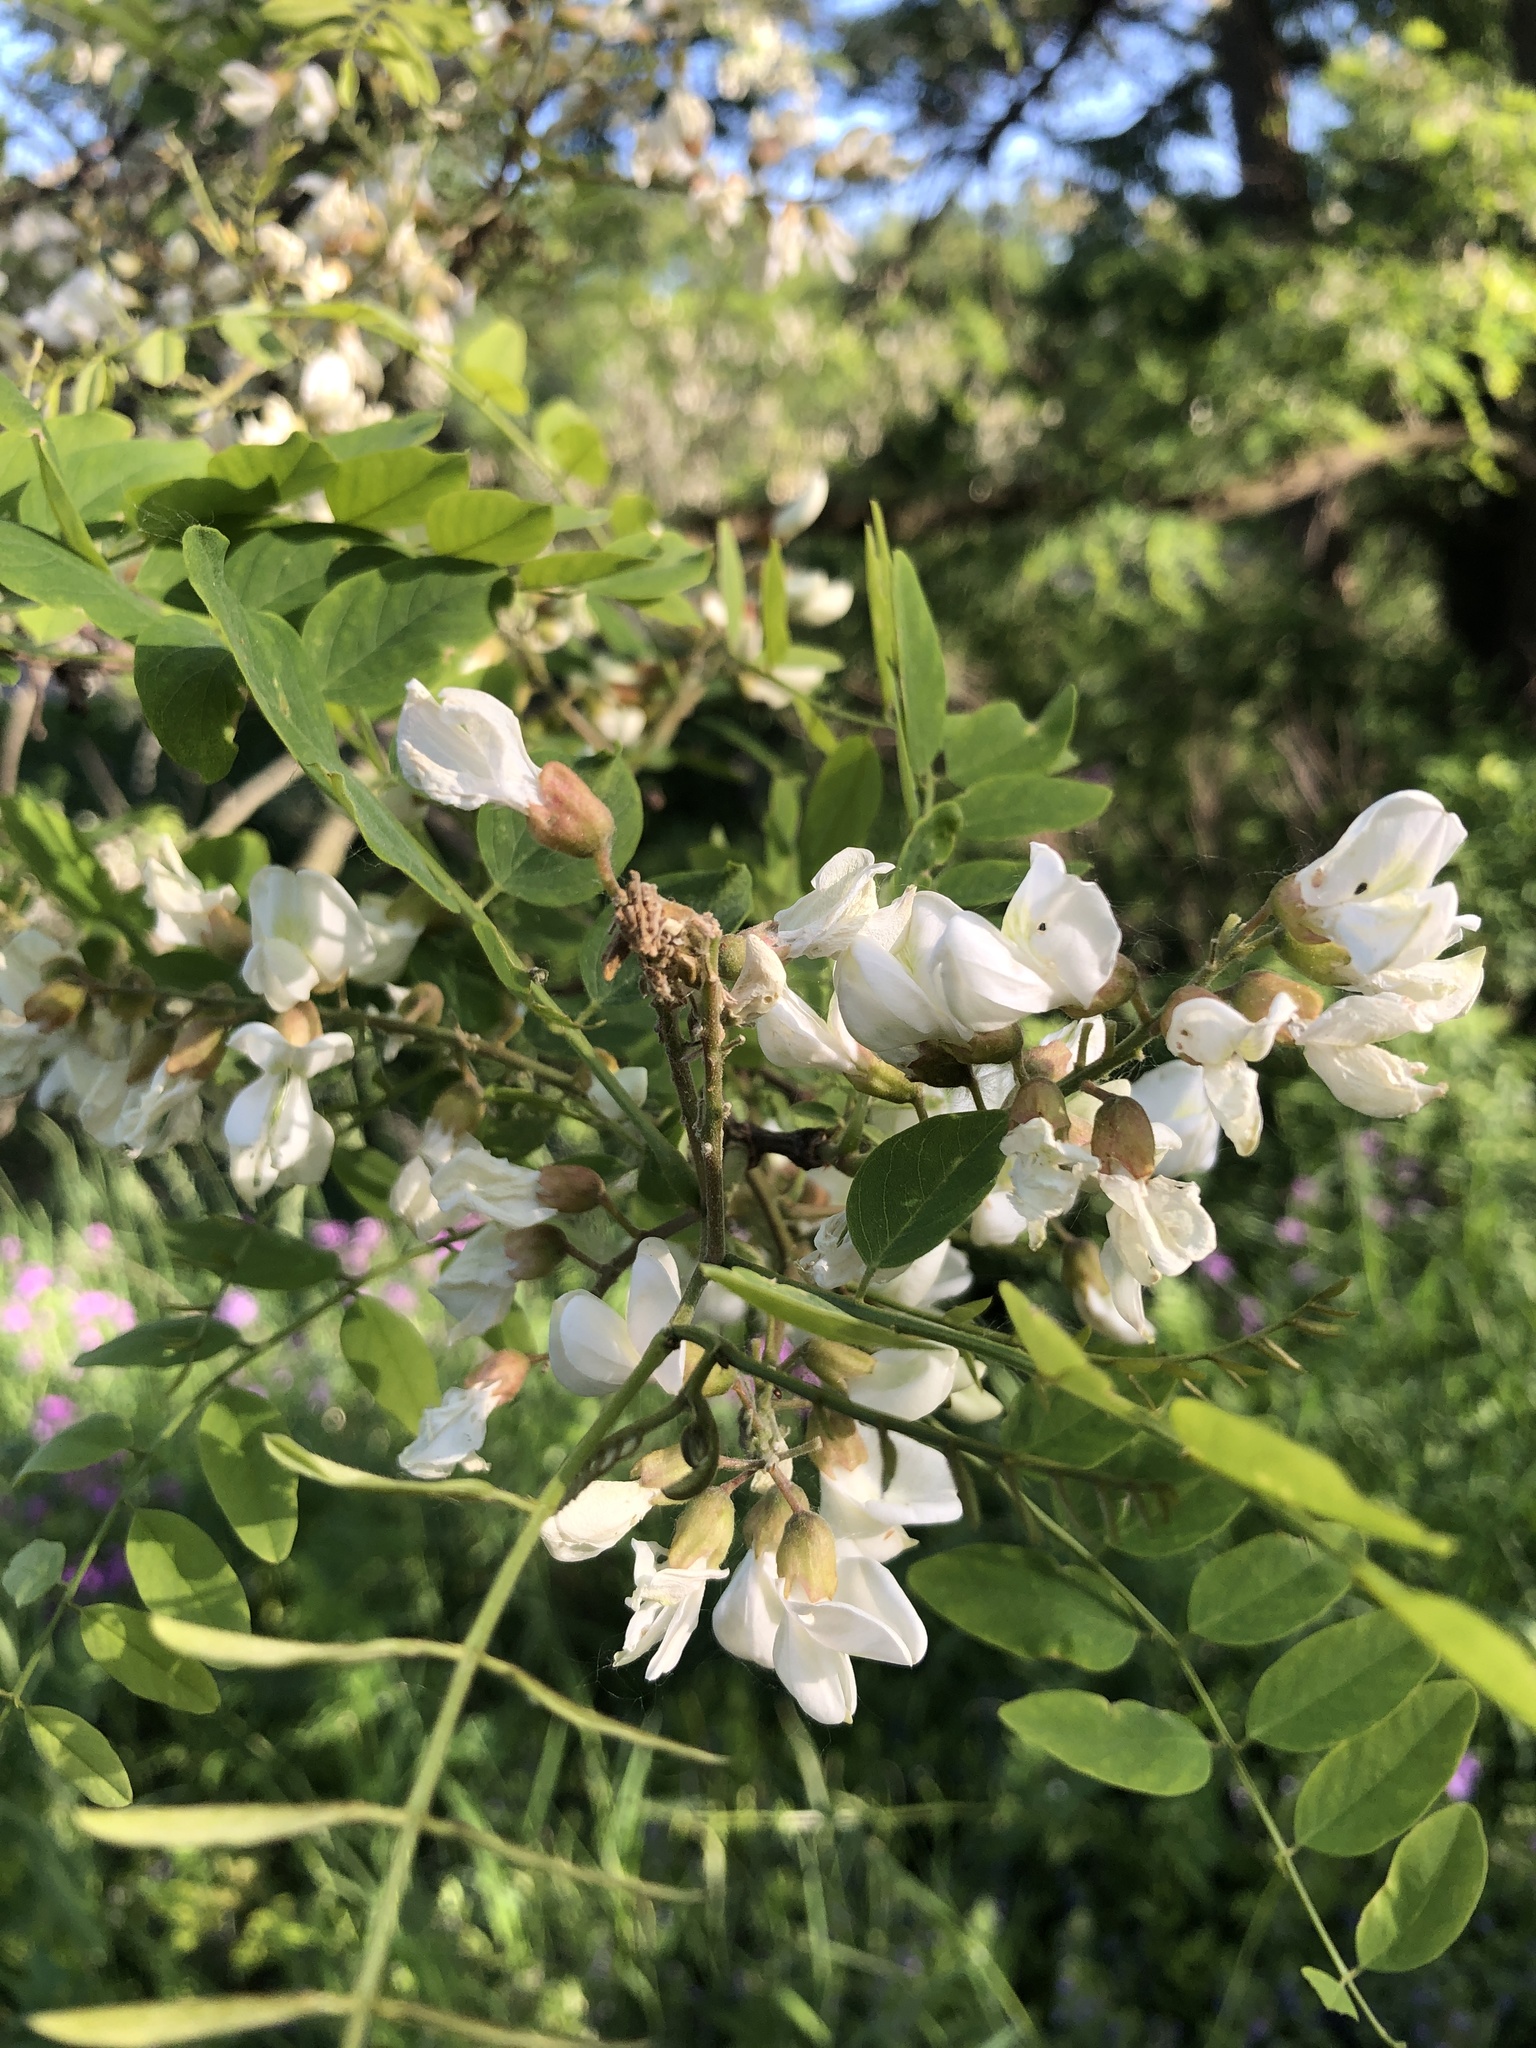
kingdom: Plantae
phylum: Tracheophyta
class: Magnoliopsida
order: Fabales
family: Fabaceae
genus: Robinia
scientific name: Robinia pseudoacacia
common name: Black locust
